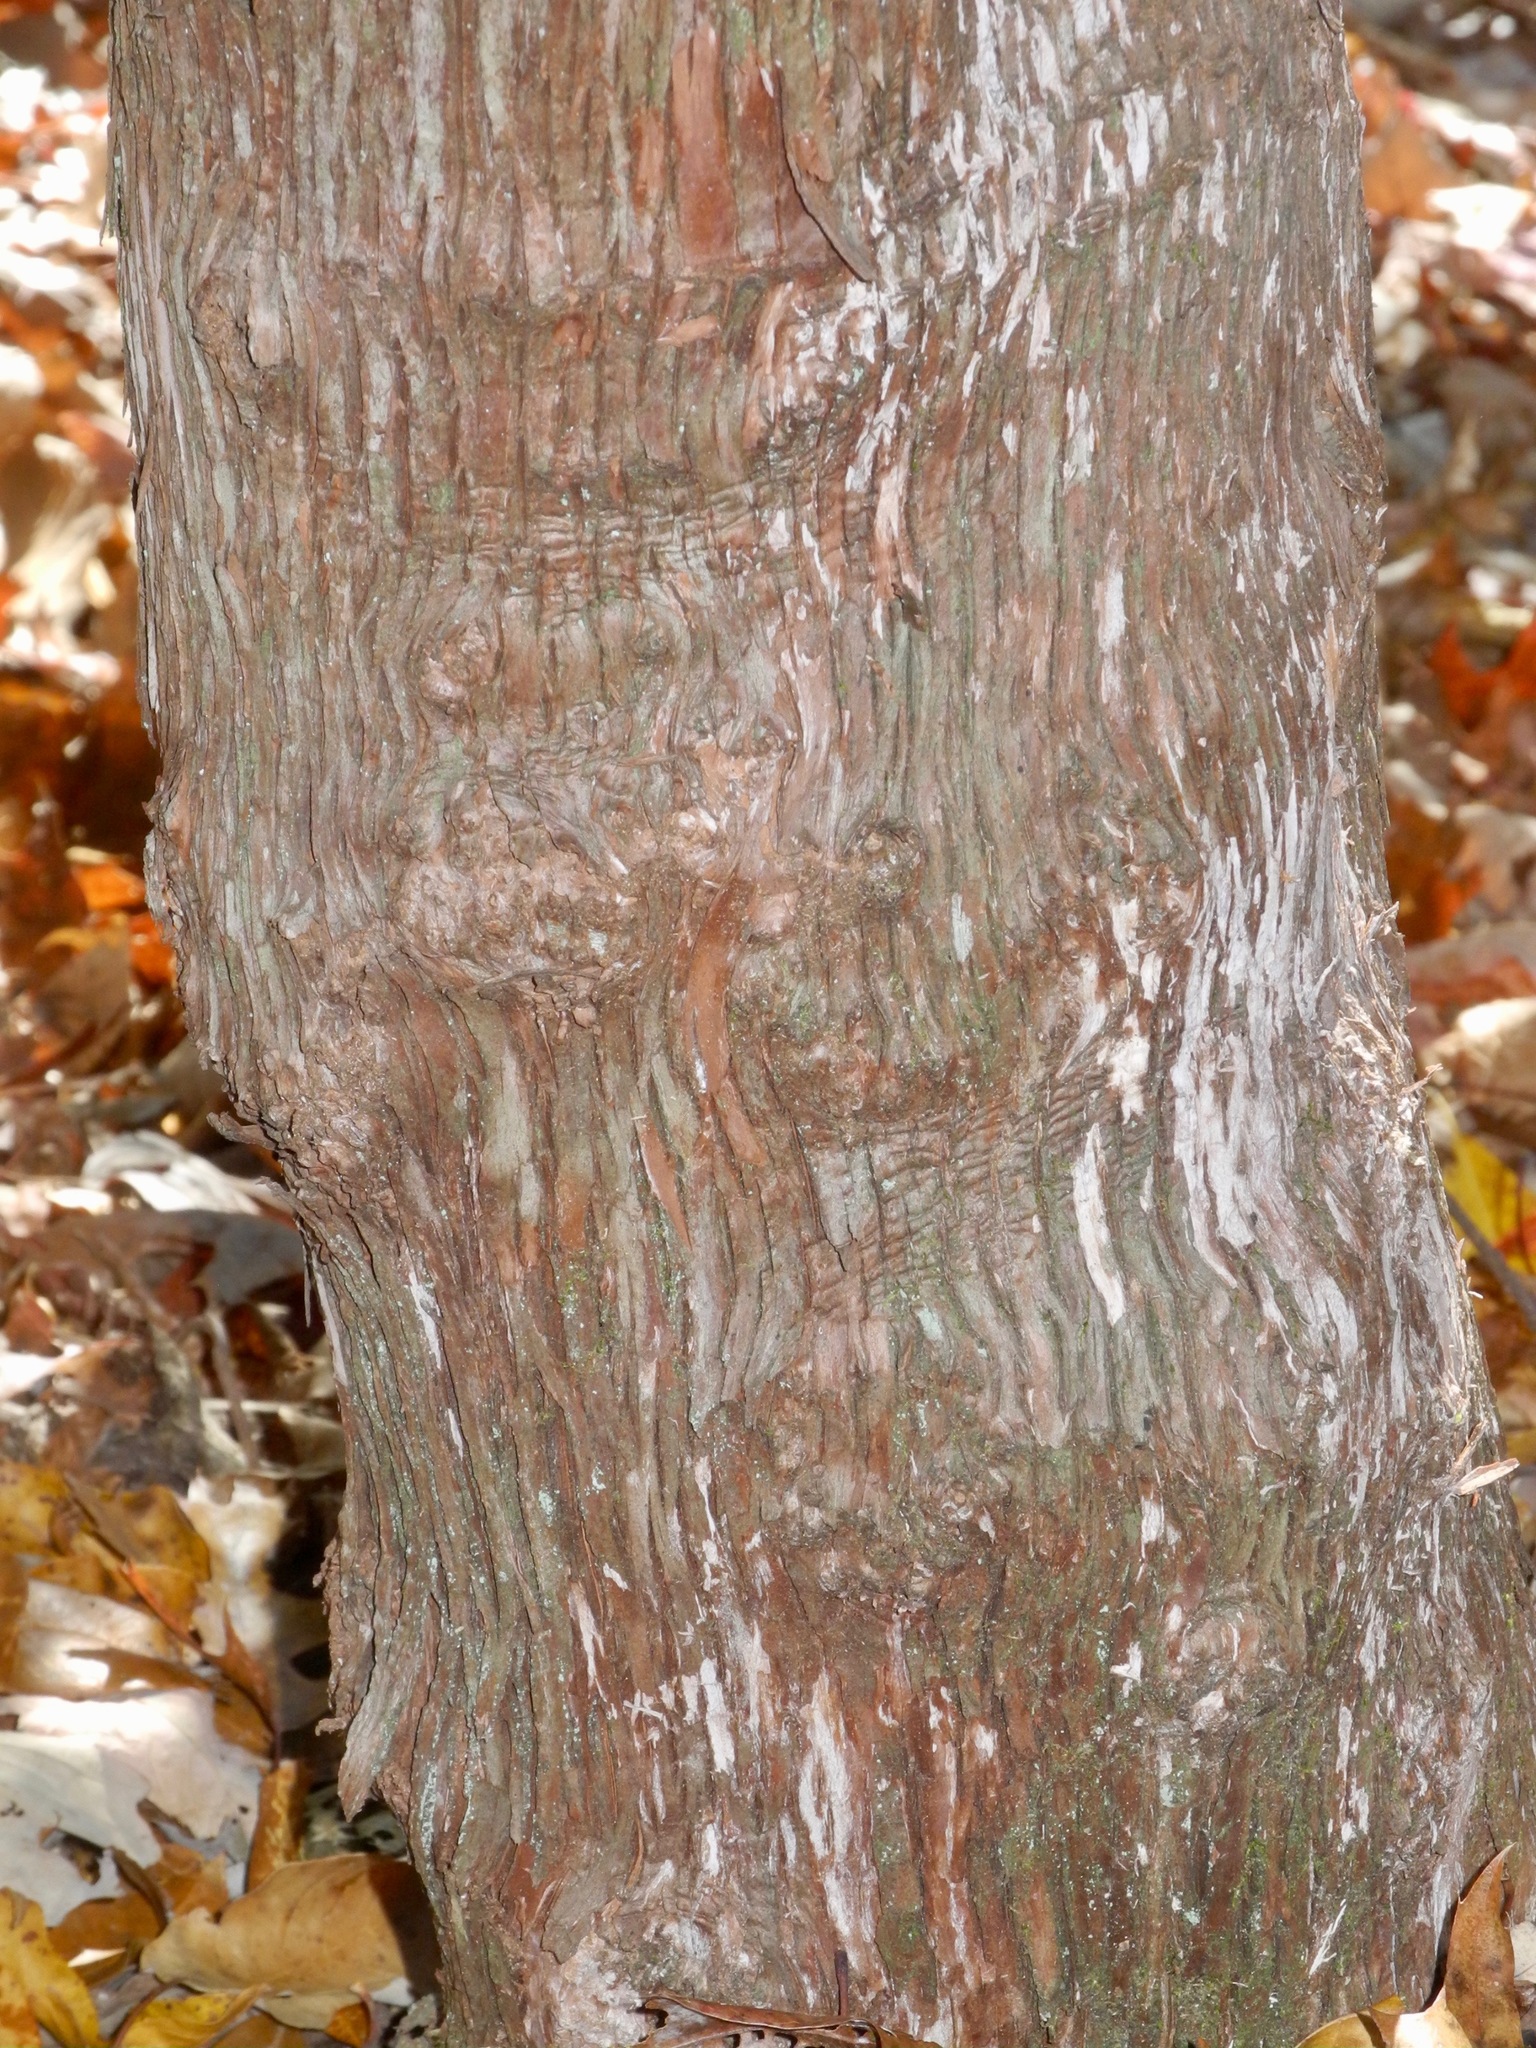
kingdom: Plantae
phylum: Tracheophyta
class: Magnoliopsida
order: Ericales
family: Ericaceae
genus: Kalmia
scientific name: Kalmia latifolia
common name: Mountain-laurel
